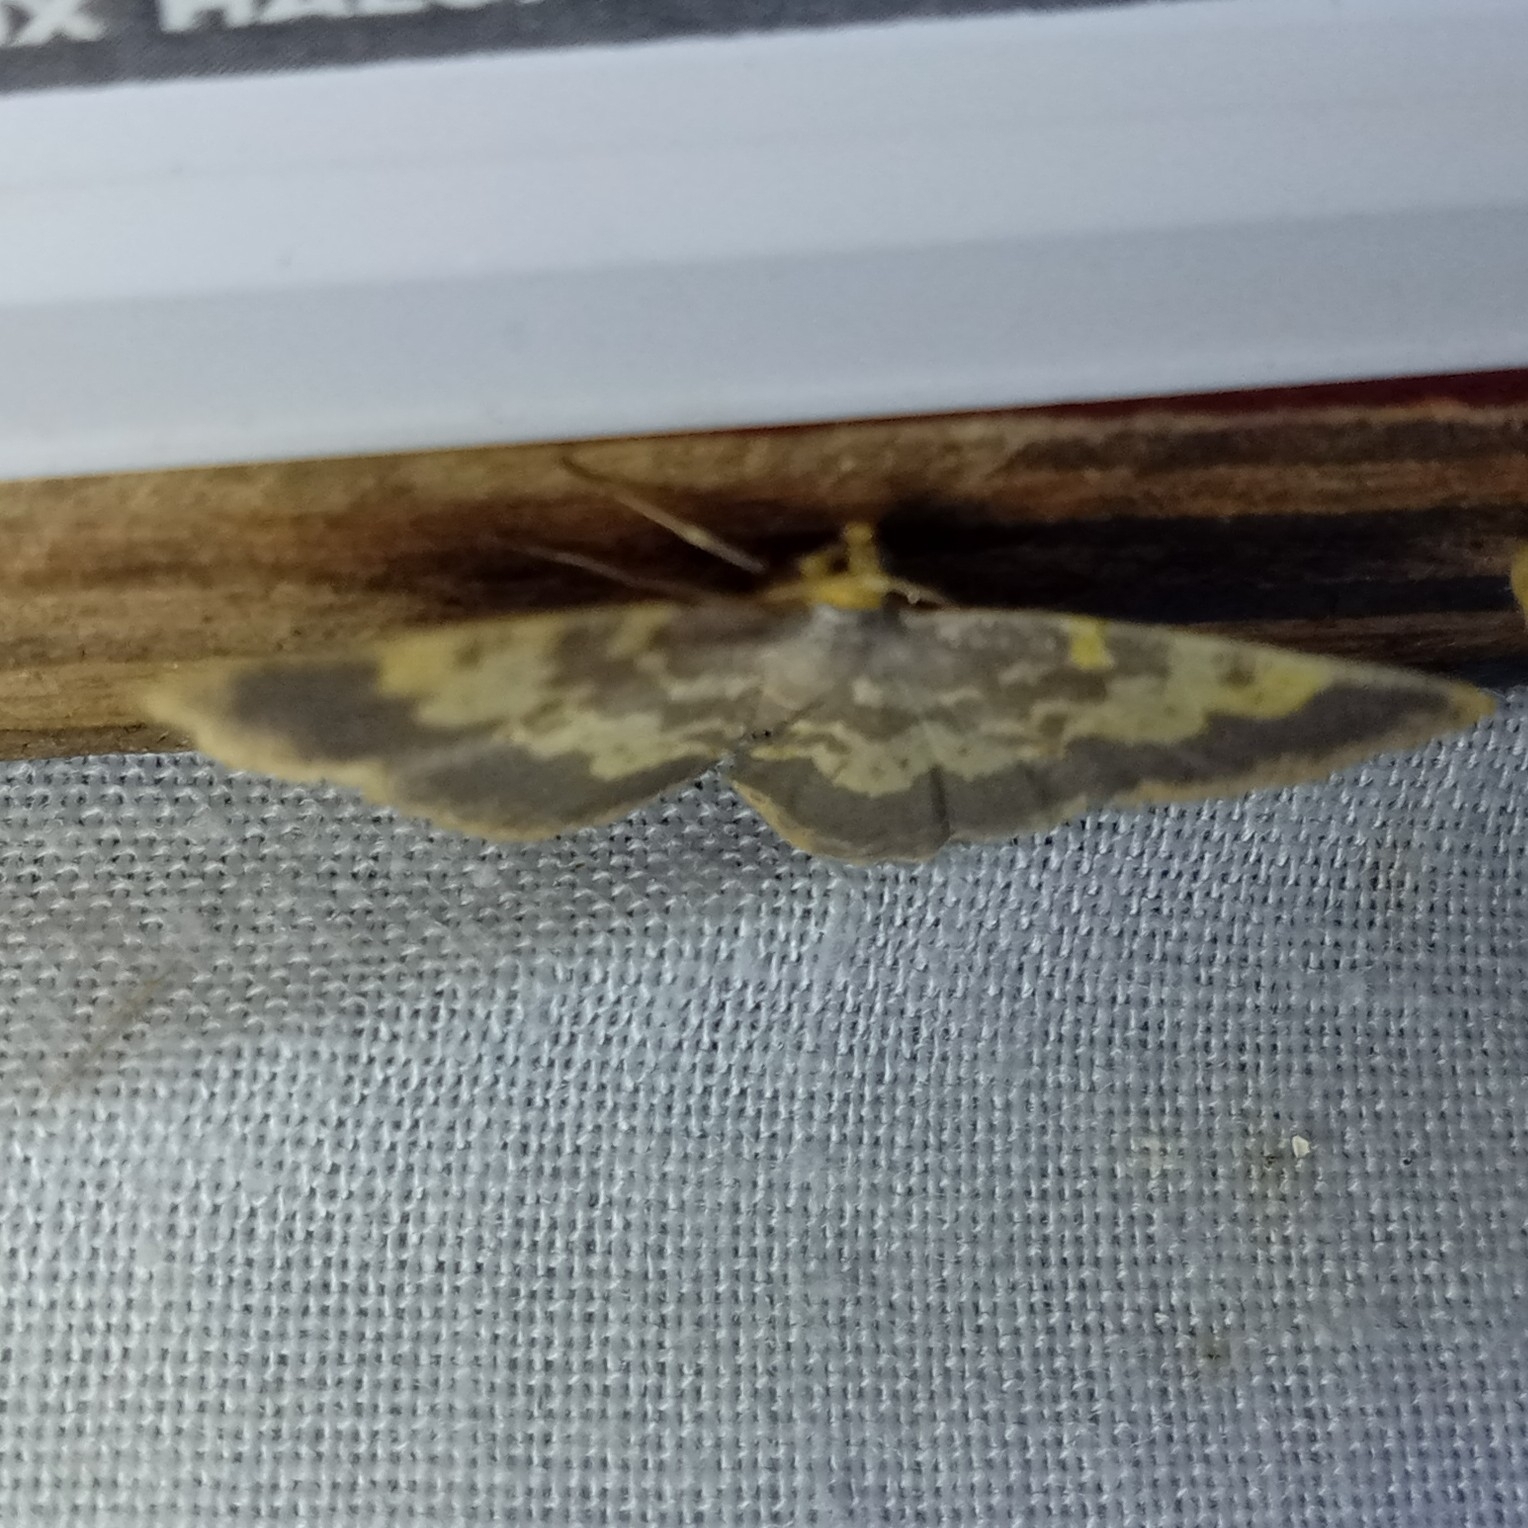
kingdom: Animalia
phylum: Arthropoda
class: Insecta
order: Lepidoptera
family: Geometridae
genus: Peratophyga
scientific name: Peratophyga hyalinata
